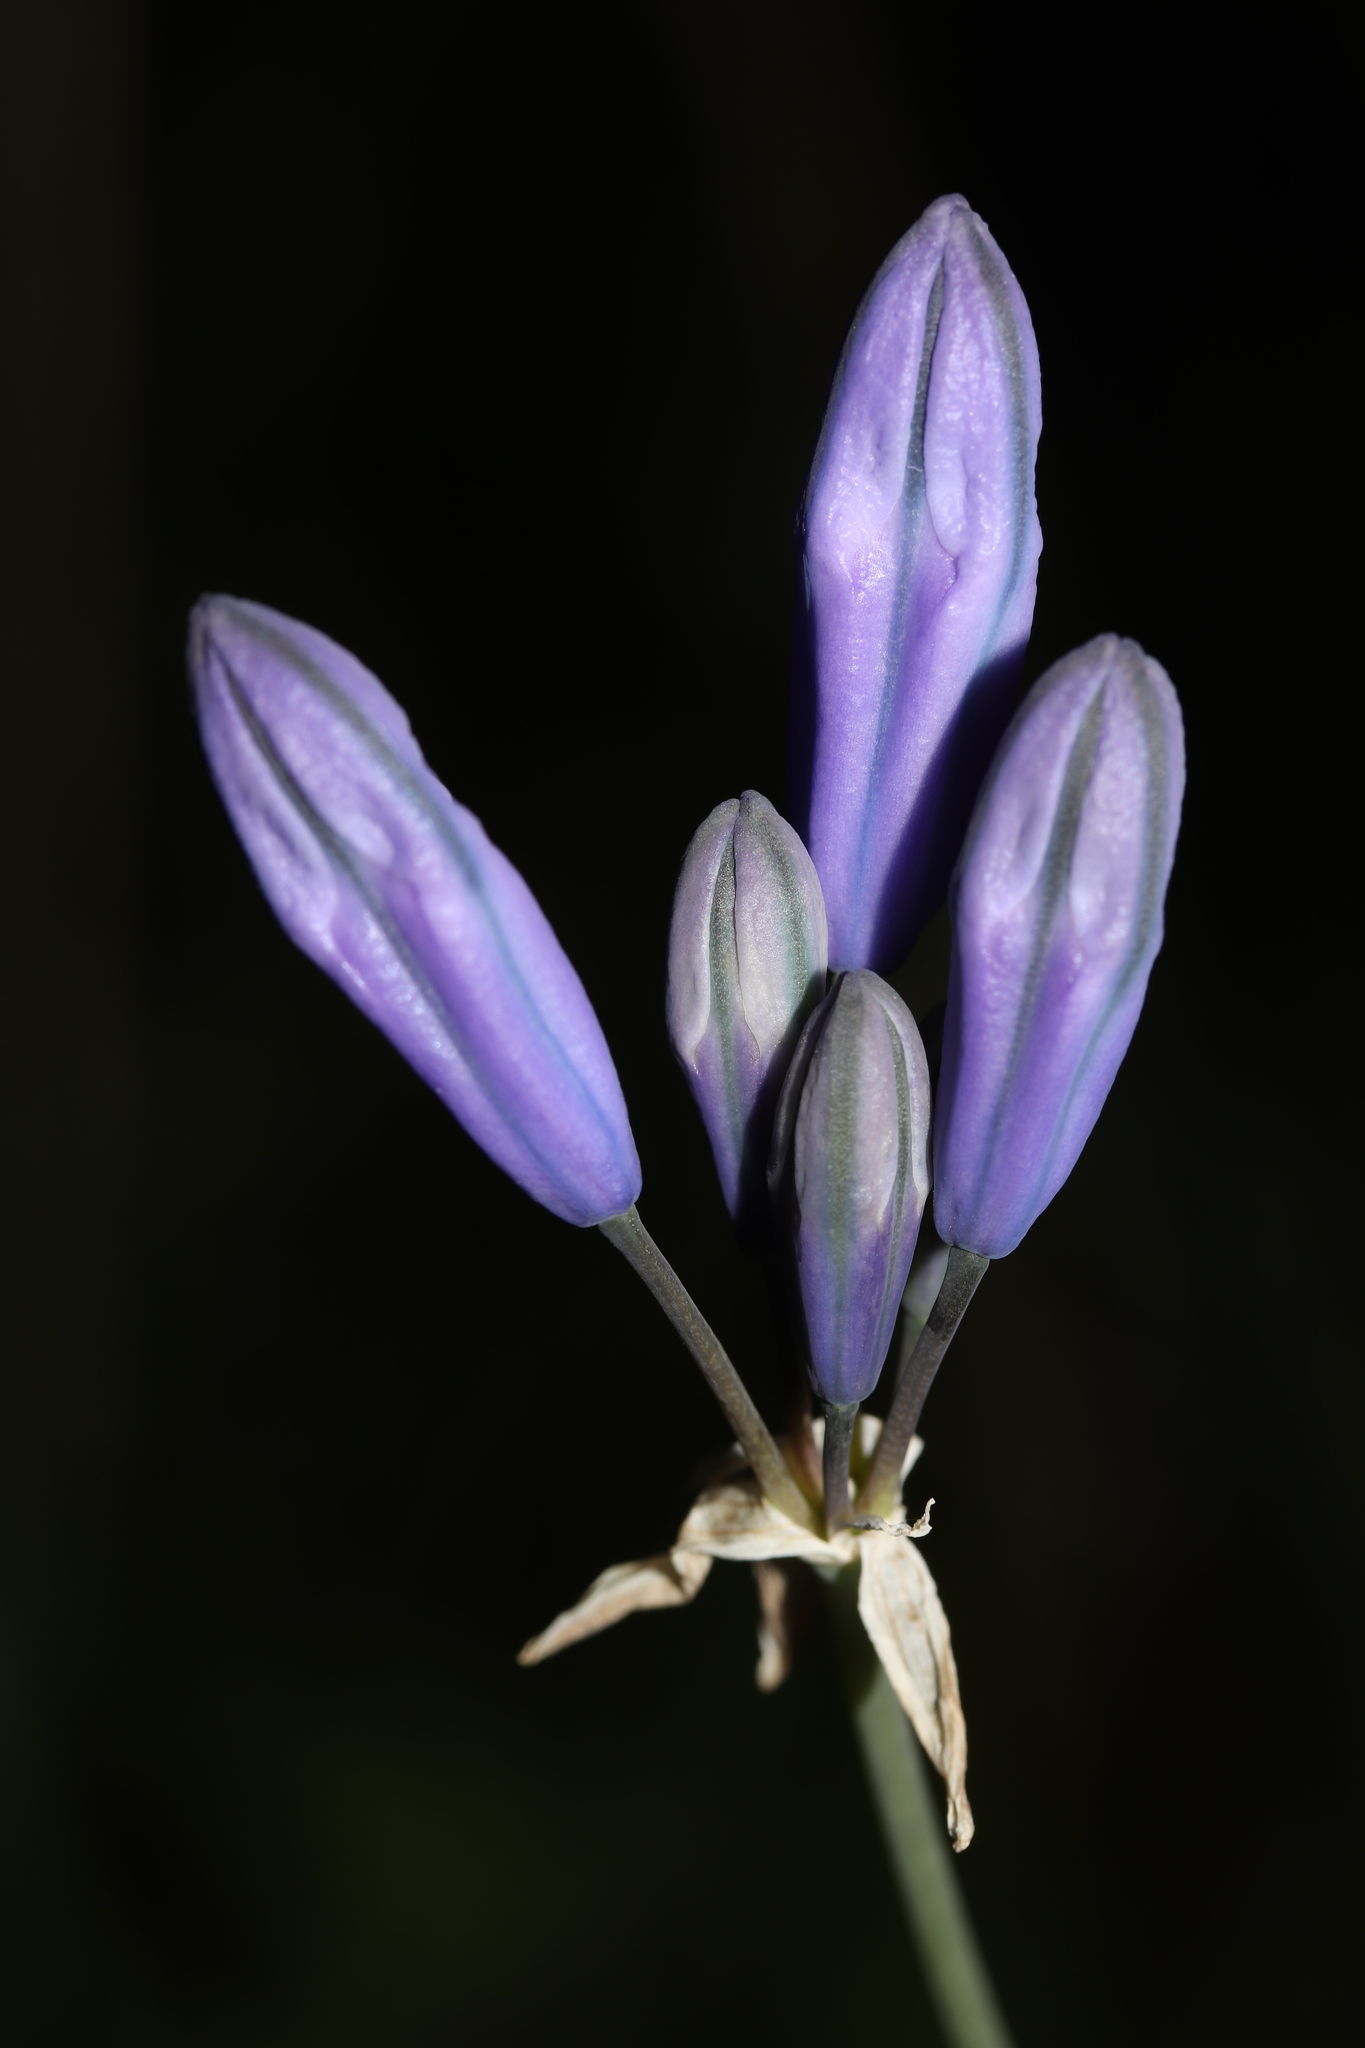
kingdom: Plantae
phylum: Tracheophyta
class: Liliopsida
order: Asparagales
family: Asparagaceae
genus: Triteleia
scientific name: Triteleia grandiflora
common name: Wild hyacinth
